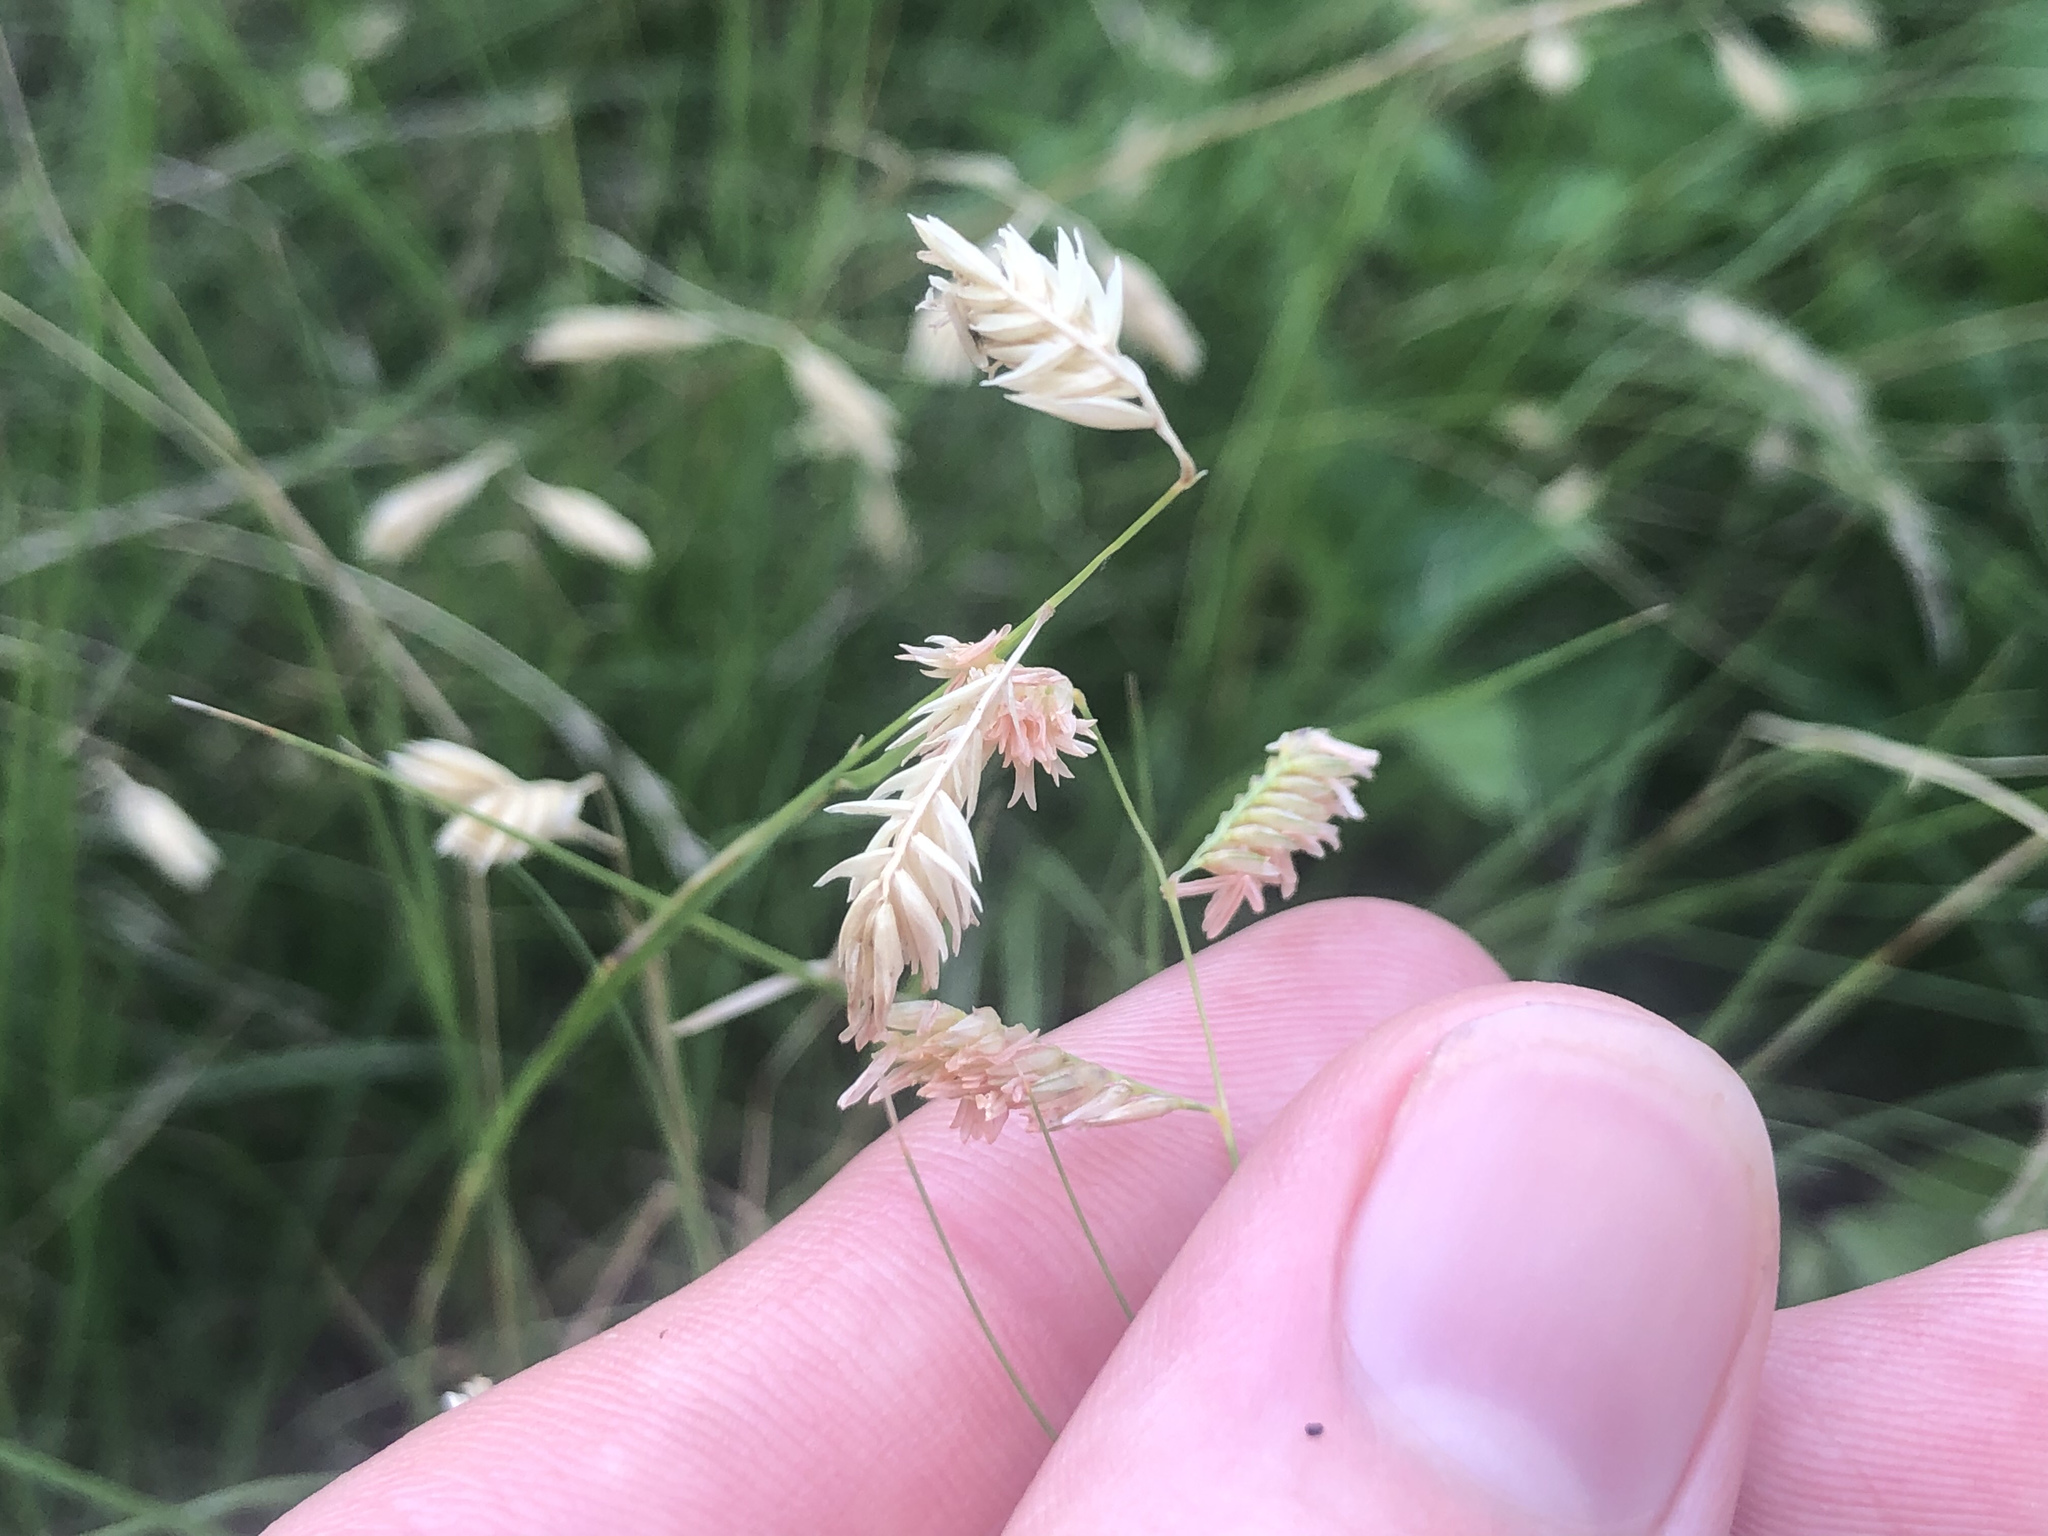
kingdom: Plantae
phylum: Tracheophyta
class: Liliopsida
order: Poales
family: Poaceae
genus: Bouteloua
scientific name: Bouteloua dactyloides
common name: Buffalo grass
